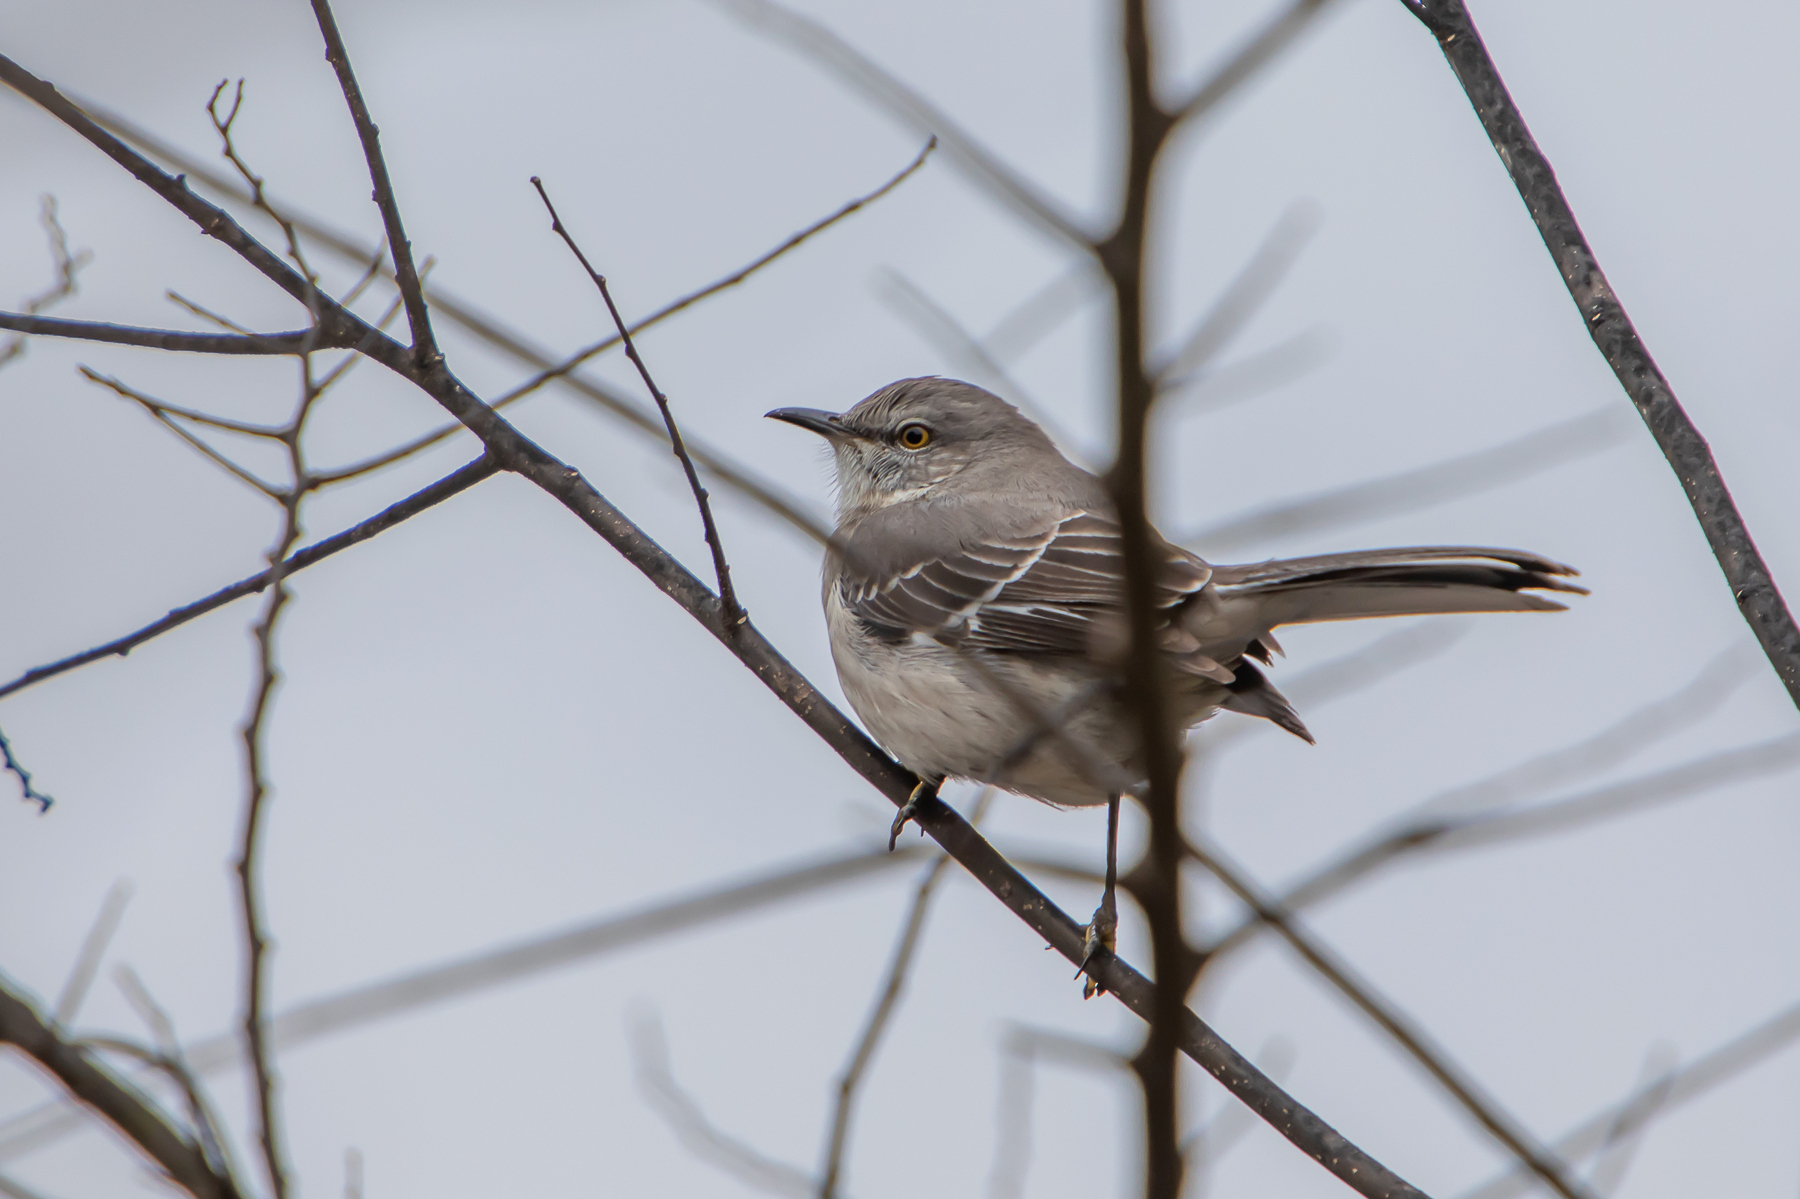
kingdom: Animalia
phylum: Chordata
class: Aves
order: Passeriformes
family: Mimidae
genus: Mimus
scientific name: Mimus polyglottos
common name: Northern mockingbird
